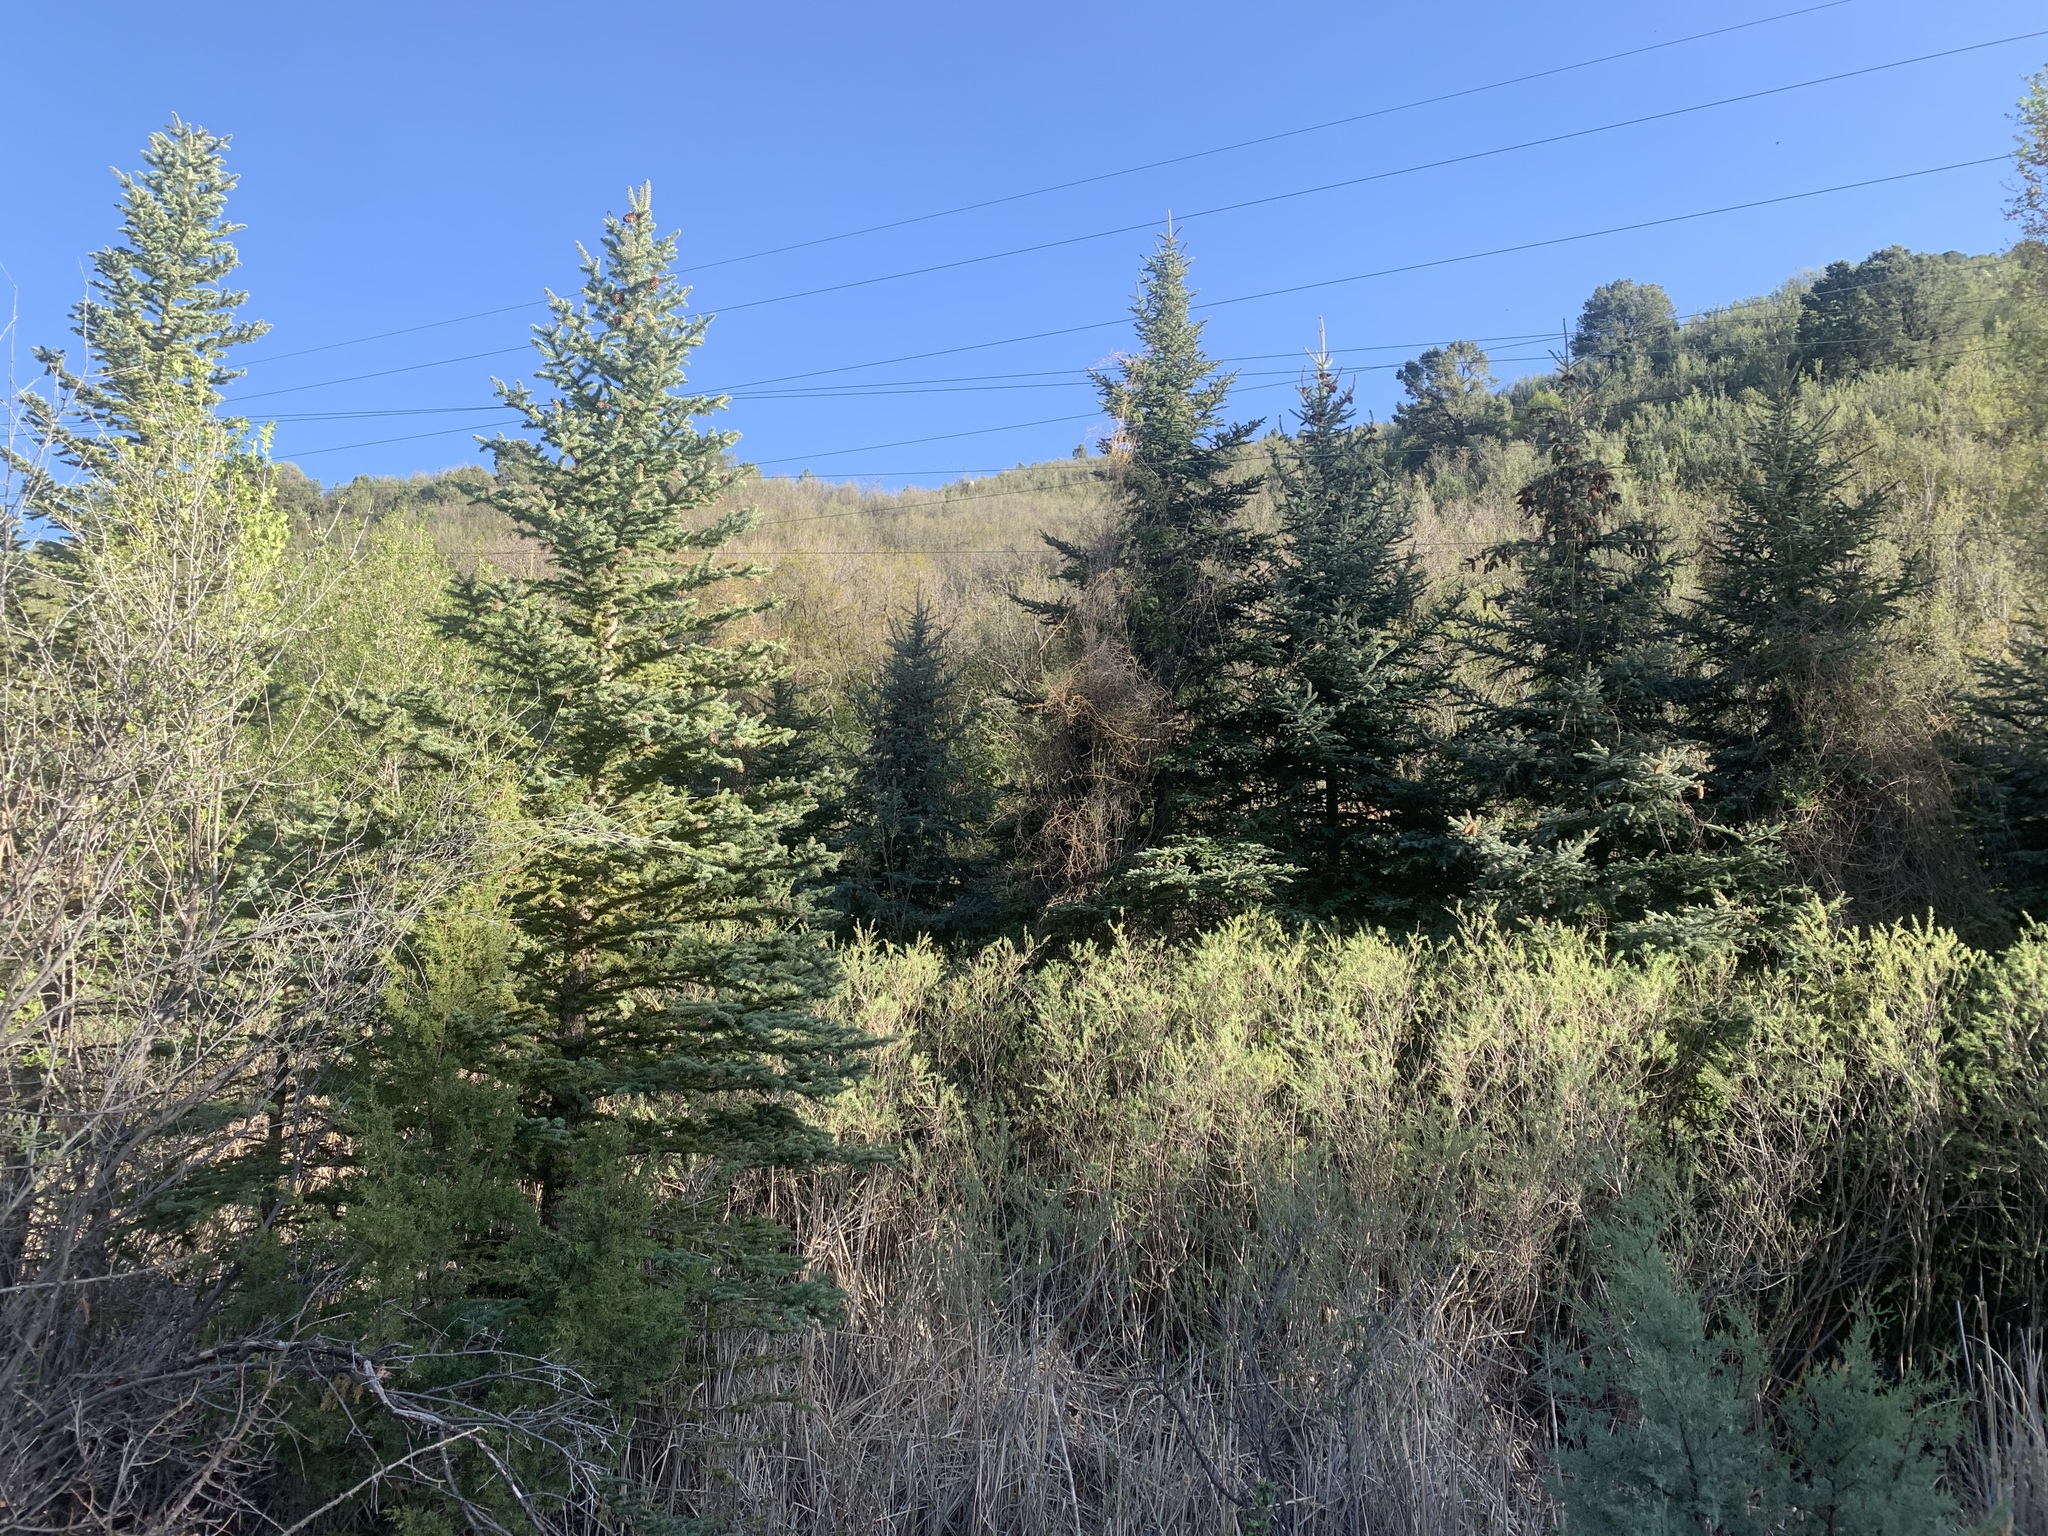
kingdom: Plantae
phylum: Tracheophyta
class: Pinopsida
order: Pinales
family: Pinaceae
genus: Picea
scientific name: Picea engelmannii
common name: Engelmann spruce
